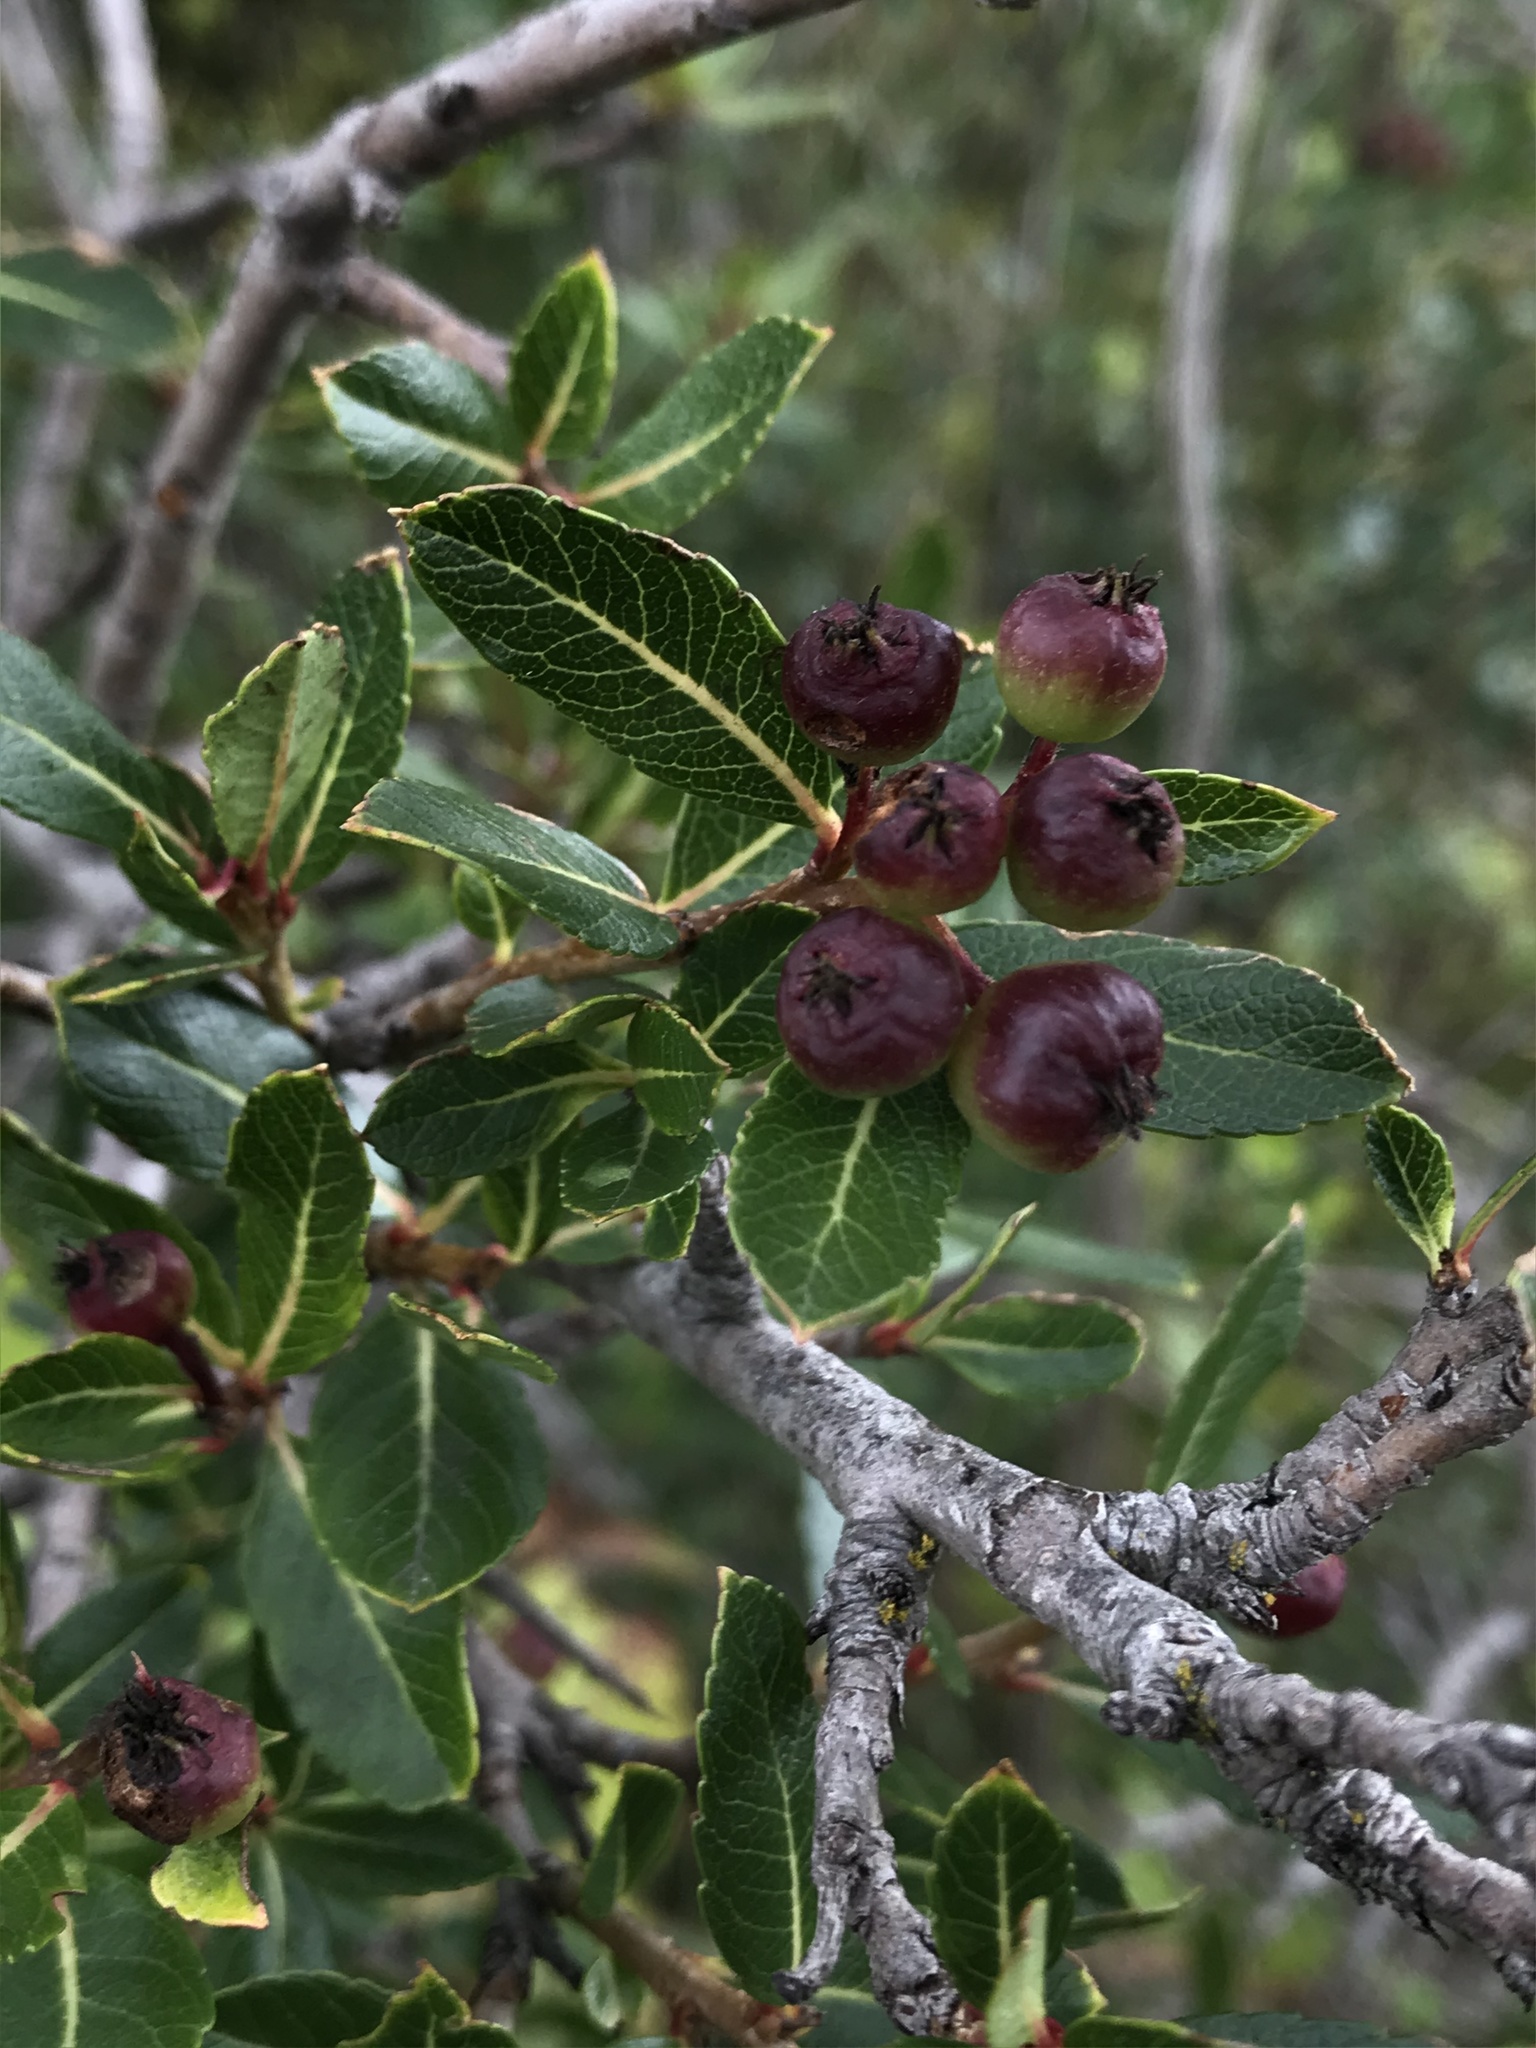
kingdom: Plantae
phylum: Tracheophyta
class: Magnoliopsida
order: Rosales
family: Rosaceae
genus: Hesperomeles
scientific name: Hesperomeles obtusifolia
